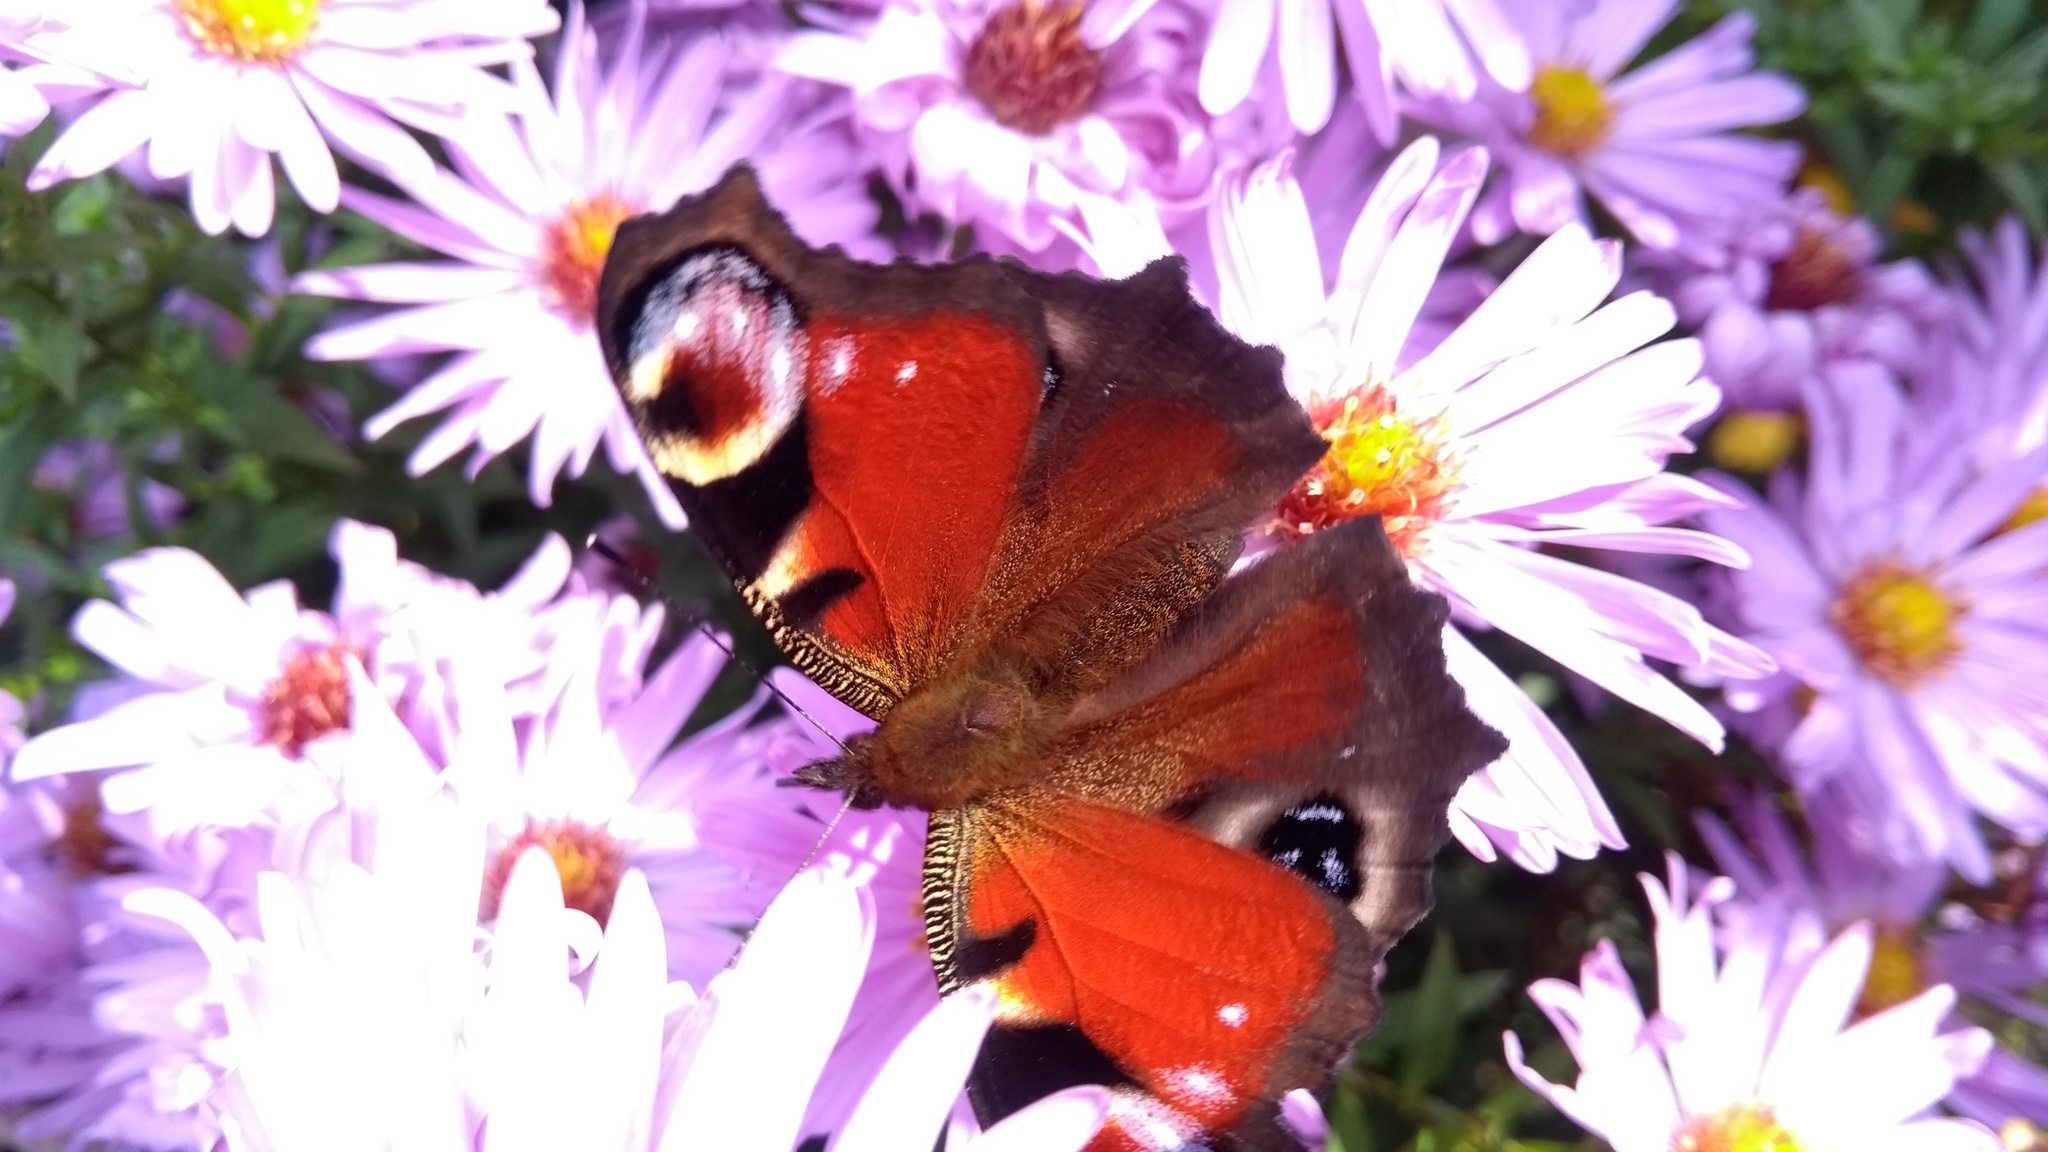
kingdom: Animalia
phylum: Arthropoda
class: Insecta
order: Lepidoptera
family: Nymphalidae
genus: Aglais
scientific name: Aglais io
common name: Peacock
